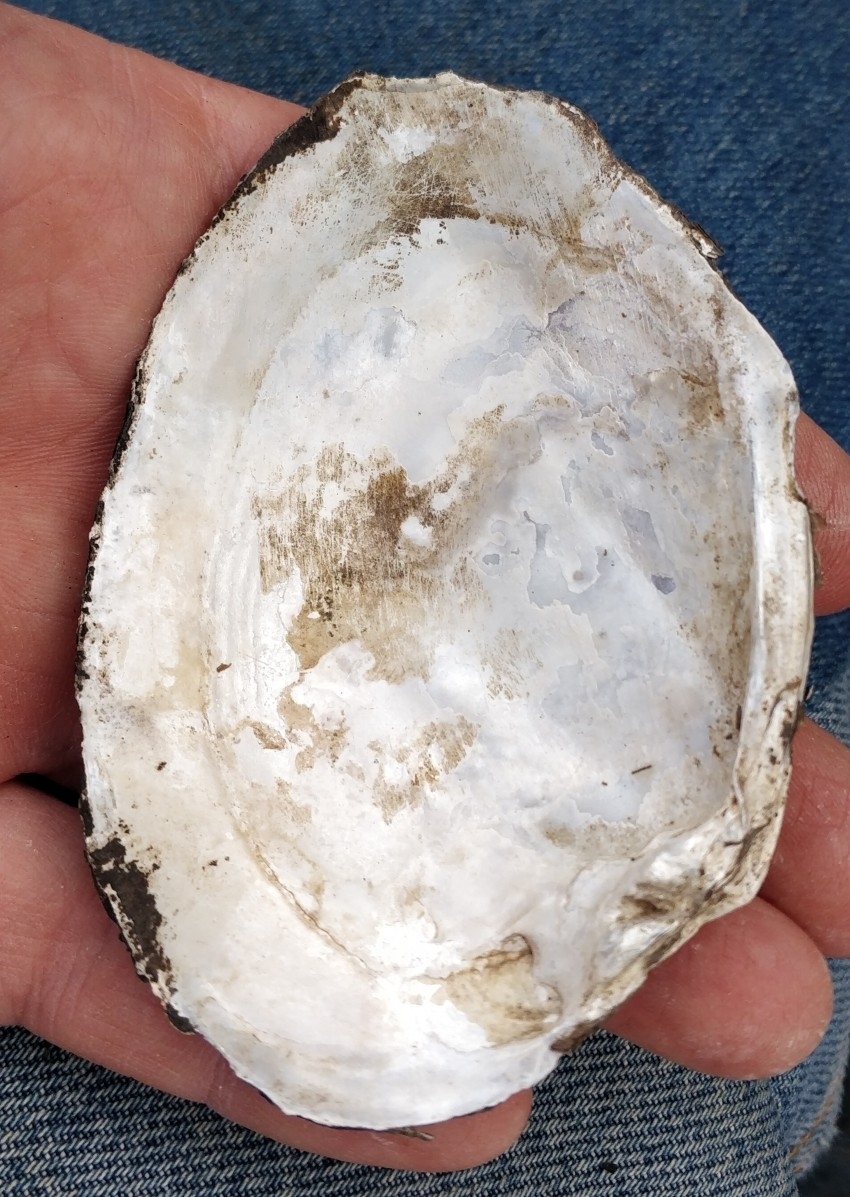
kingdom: Animalia
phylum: Mollusca
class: Bivalvia
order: Unionida
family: Unionidae
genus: Lasmigona
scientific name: Lasmigona complanata
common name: White heelsplitter
